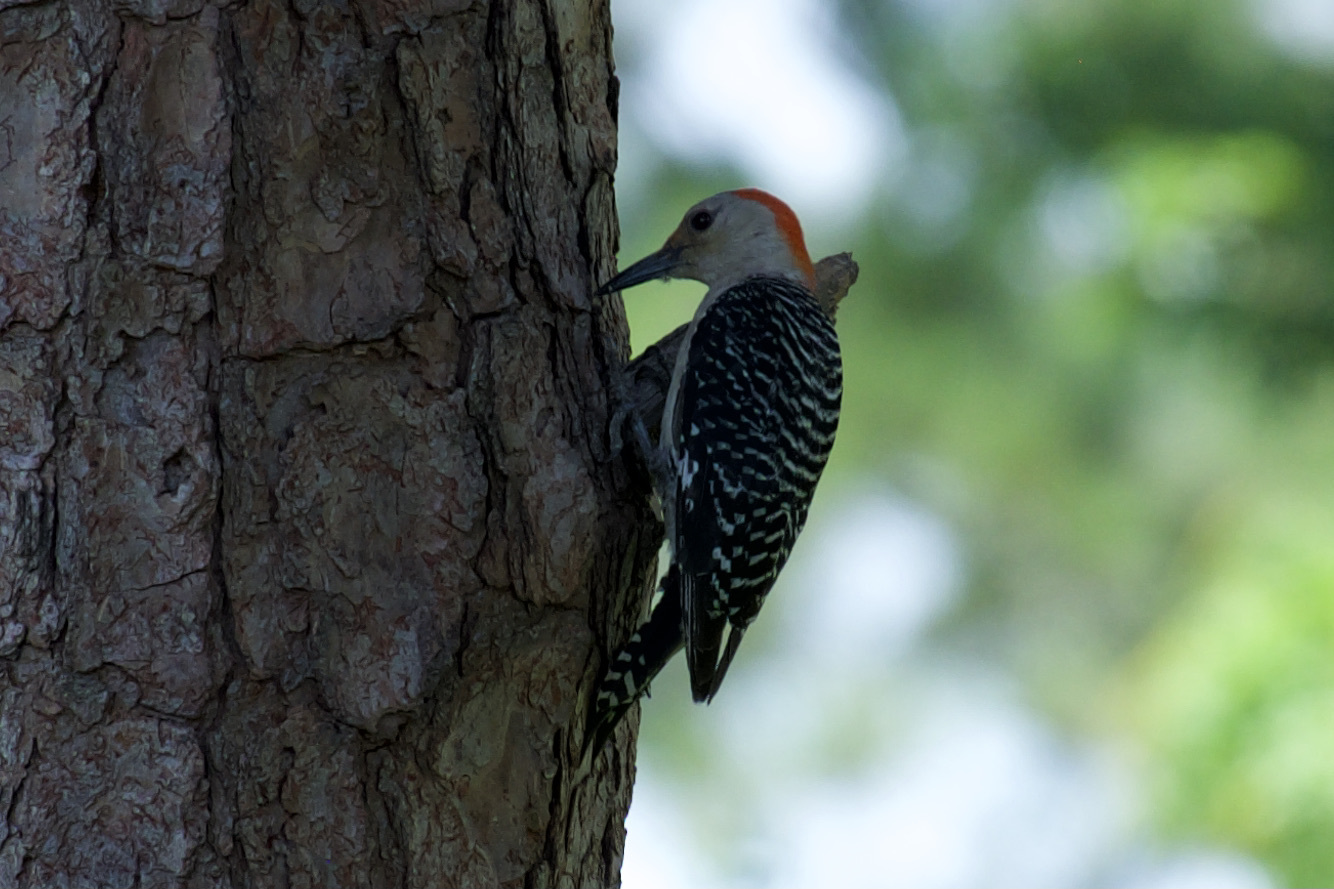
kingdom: Animalia
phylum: Chordata
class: Aves
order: Piciformes
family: Picidae
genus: Melanerpes
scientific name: Melanerpes carolinus
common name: Red-bellied woodpecker
